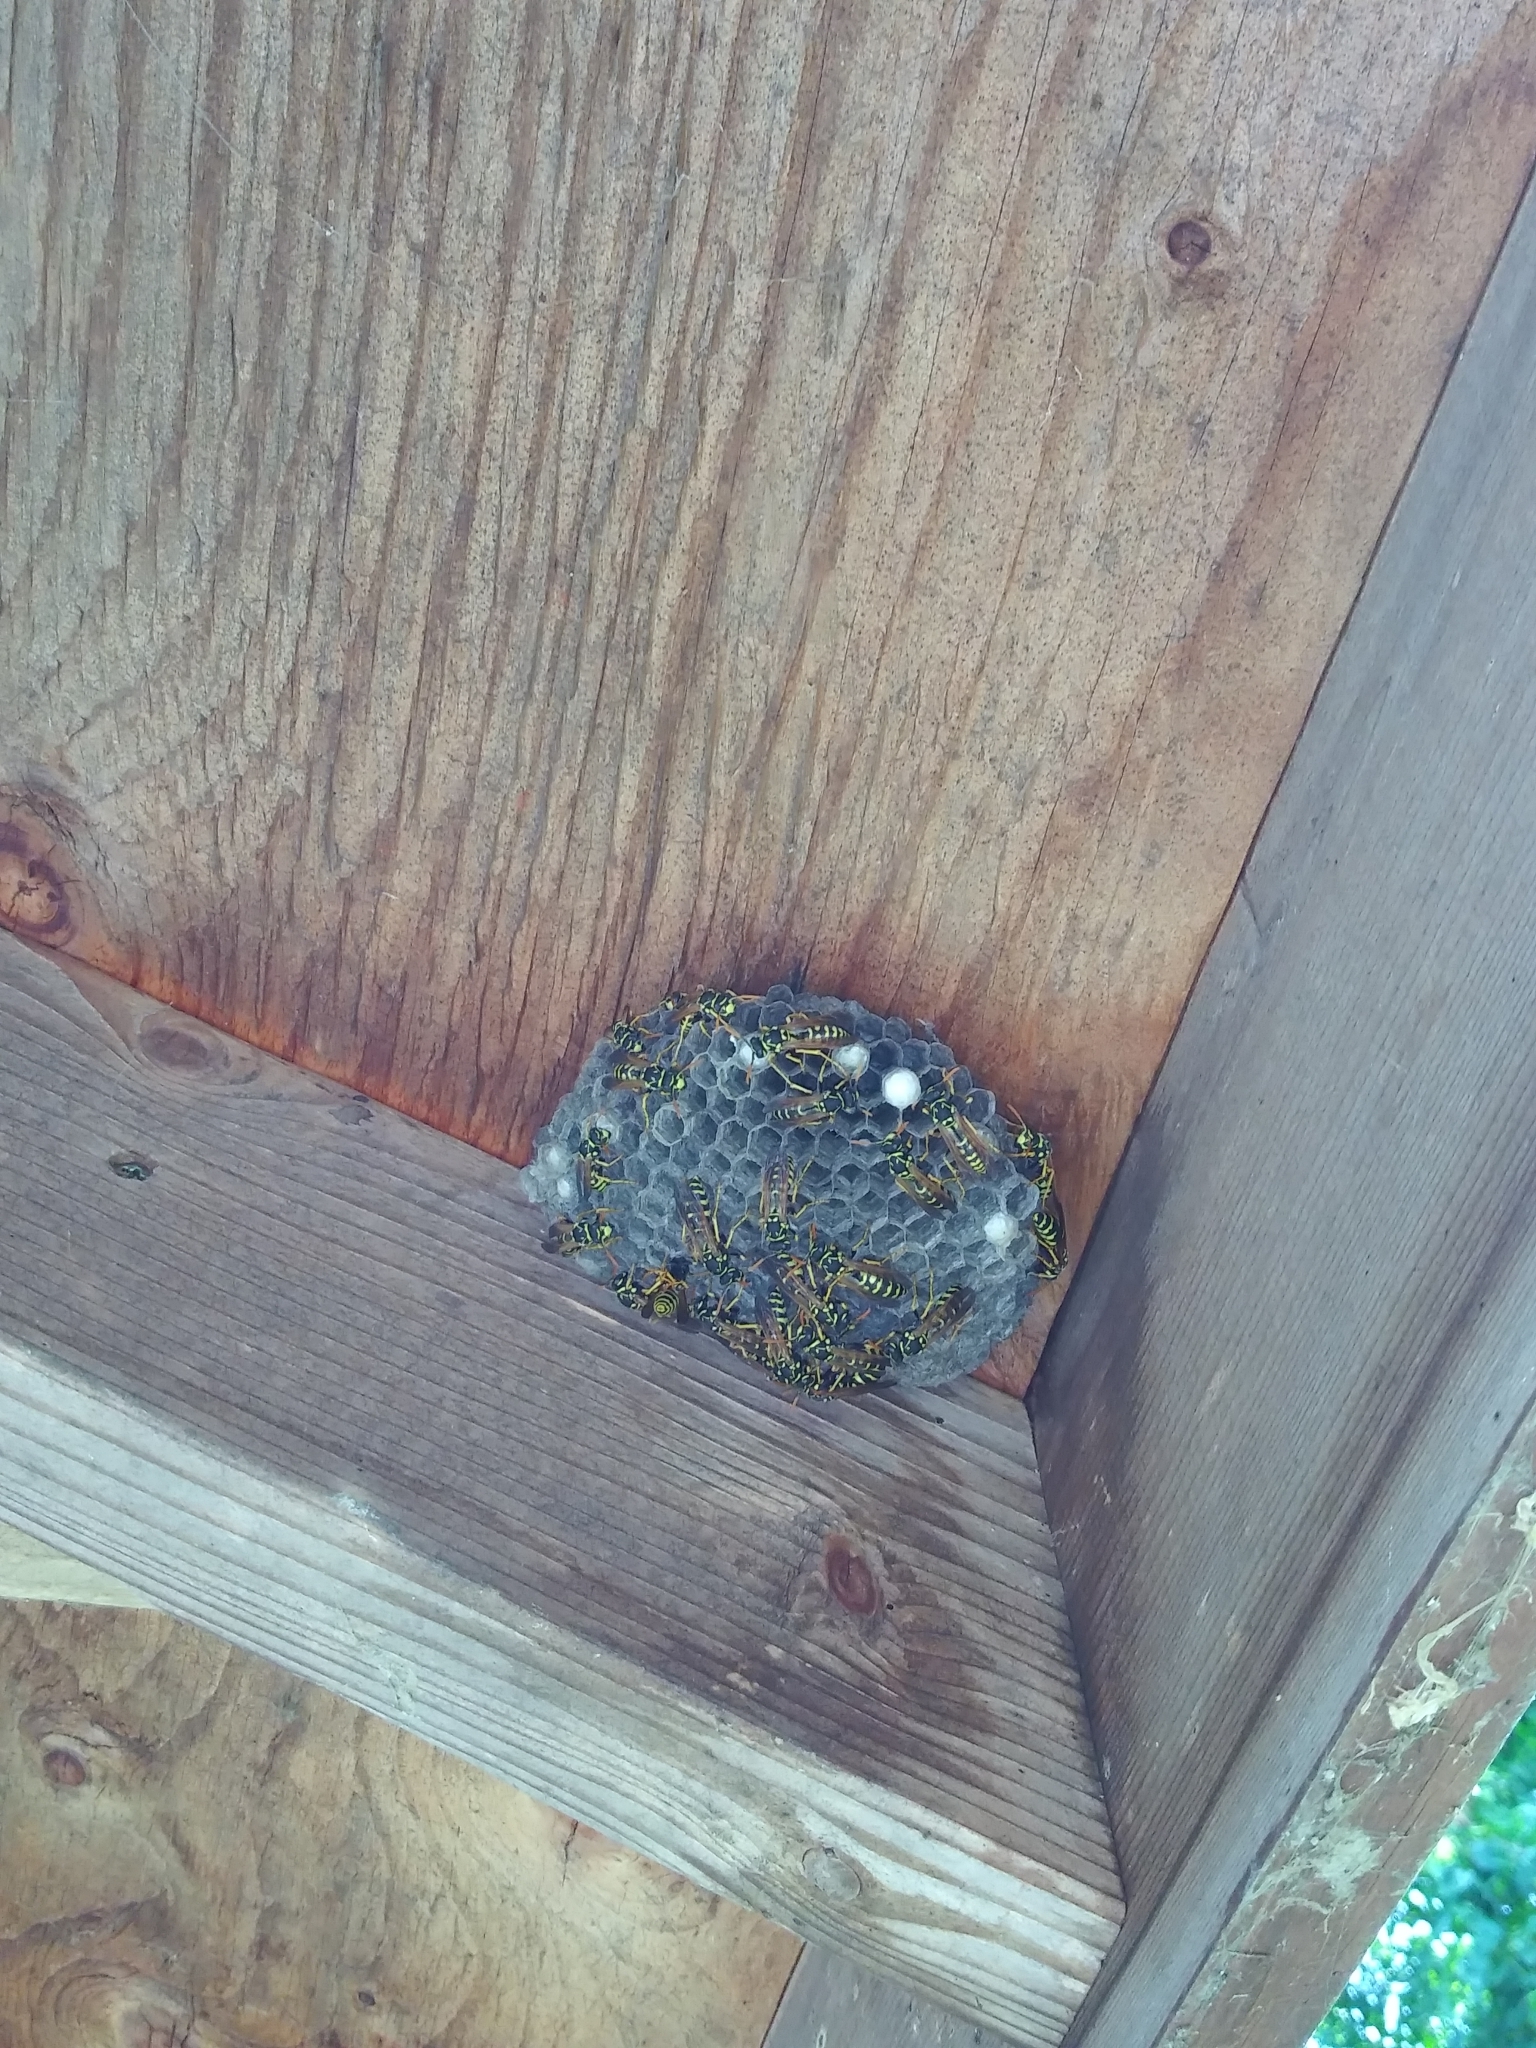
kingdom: Animalia
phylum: Arthropoda
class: Insecta
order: Hymenoptera
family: Eumenidae
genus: Polistes
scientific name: Polistes dominula
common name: Paper wasp
